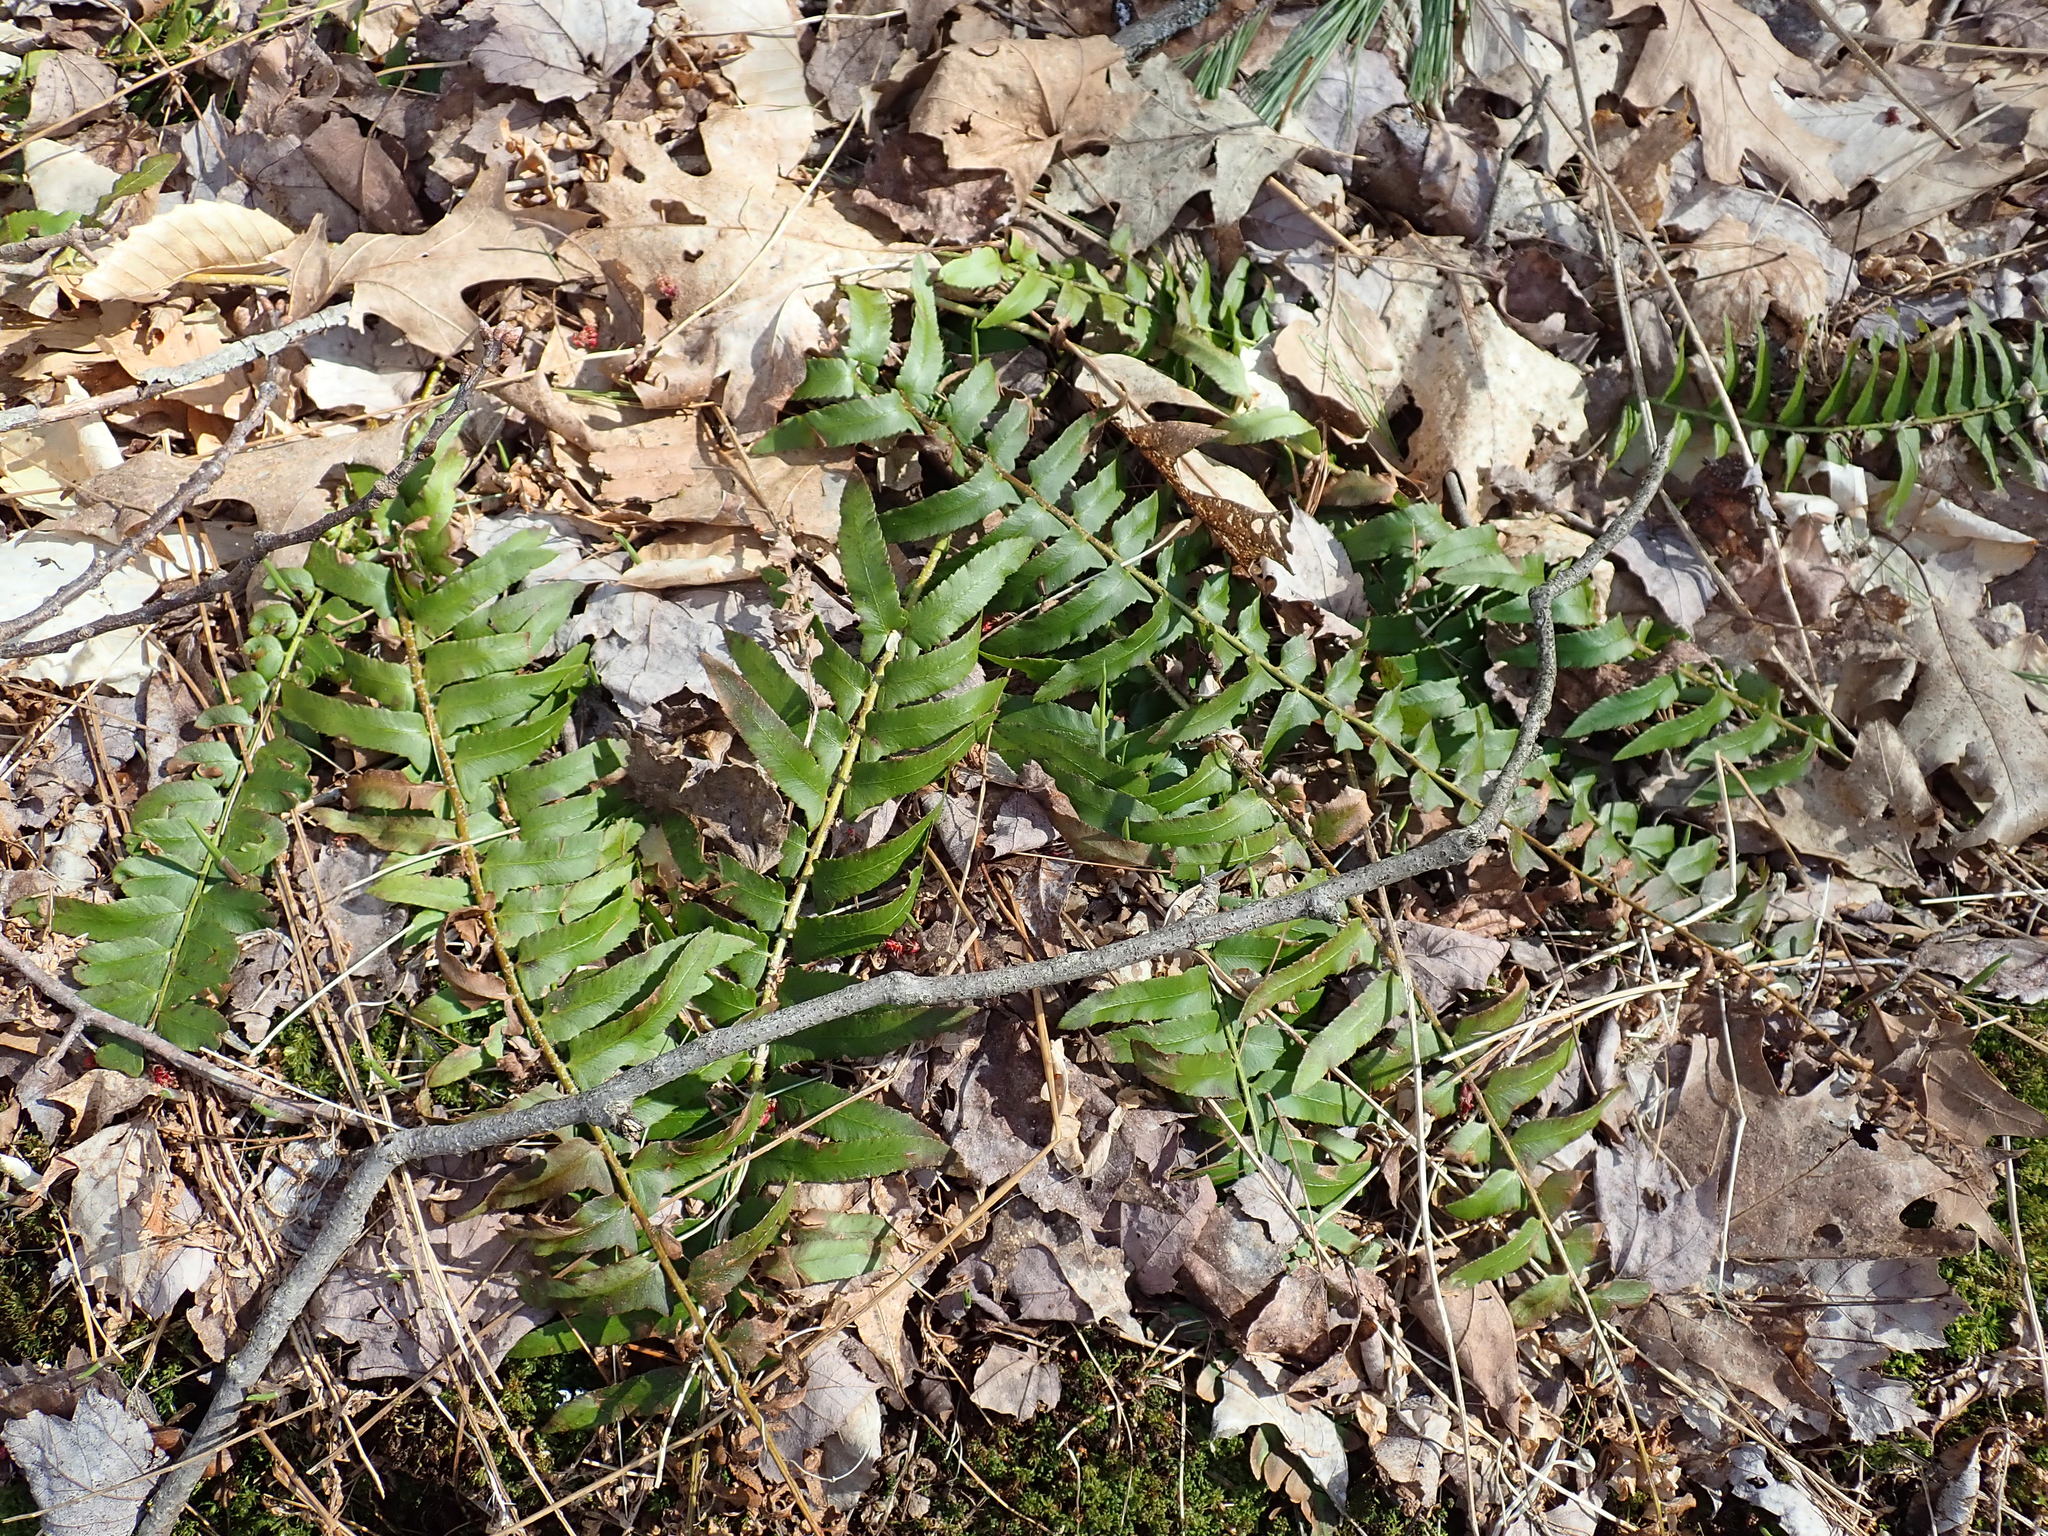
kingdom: Plantae
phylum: Tracheophyta
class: Polypodiopsida
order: Polypodiales
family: Dryopteridaceae
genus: Polystichum
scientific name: Polystichum acrostichoides
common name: Christmas fern
